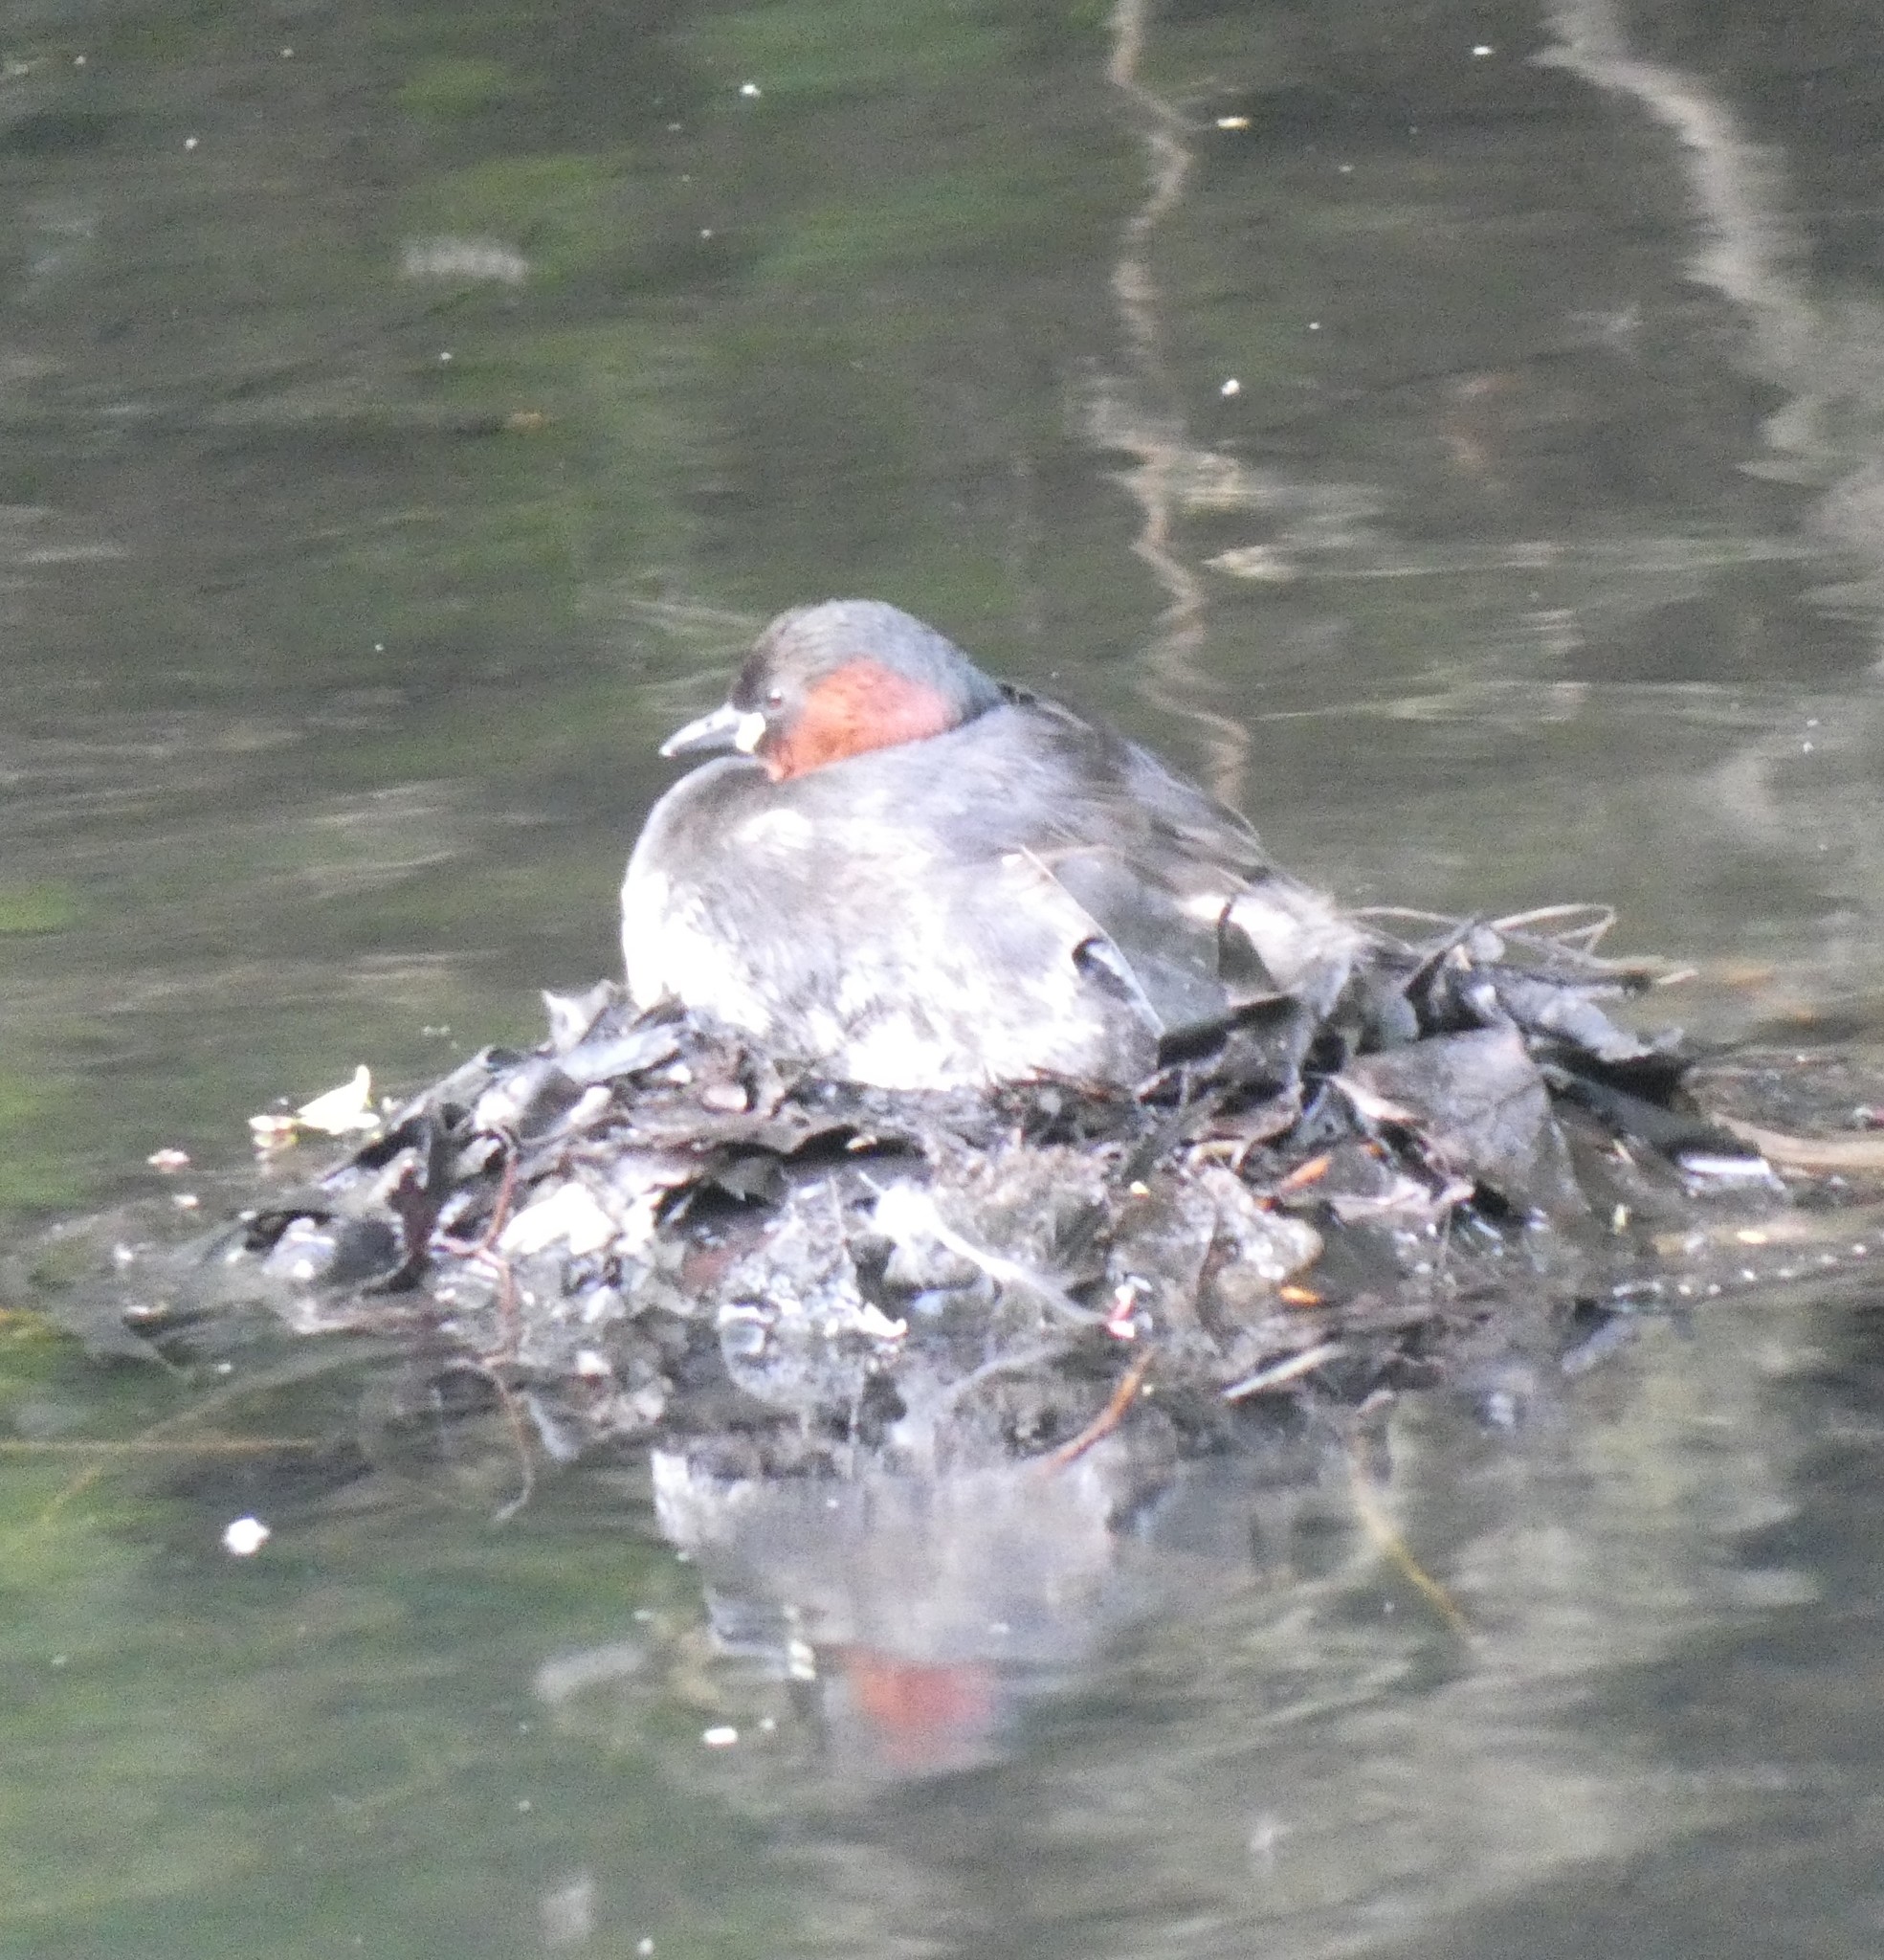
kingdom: Animalia
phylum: Chordata
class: Aves
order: Podicipediformes
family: Podicipedidae
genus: Tachybaptus
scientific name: Tachybaptus ruficollis
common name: Little grebe
